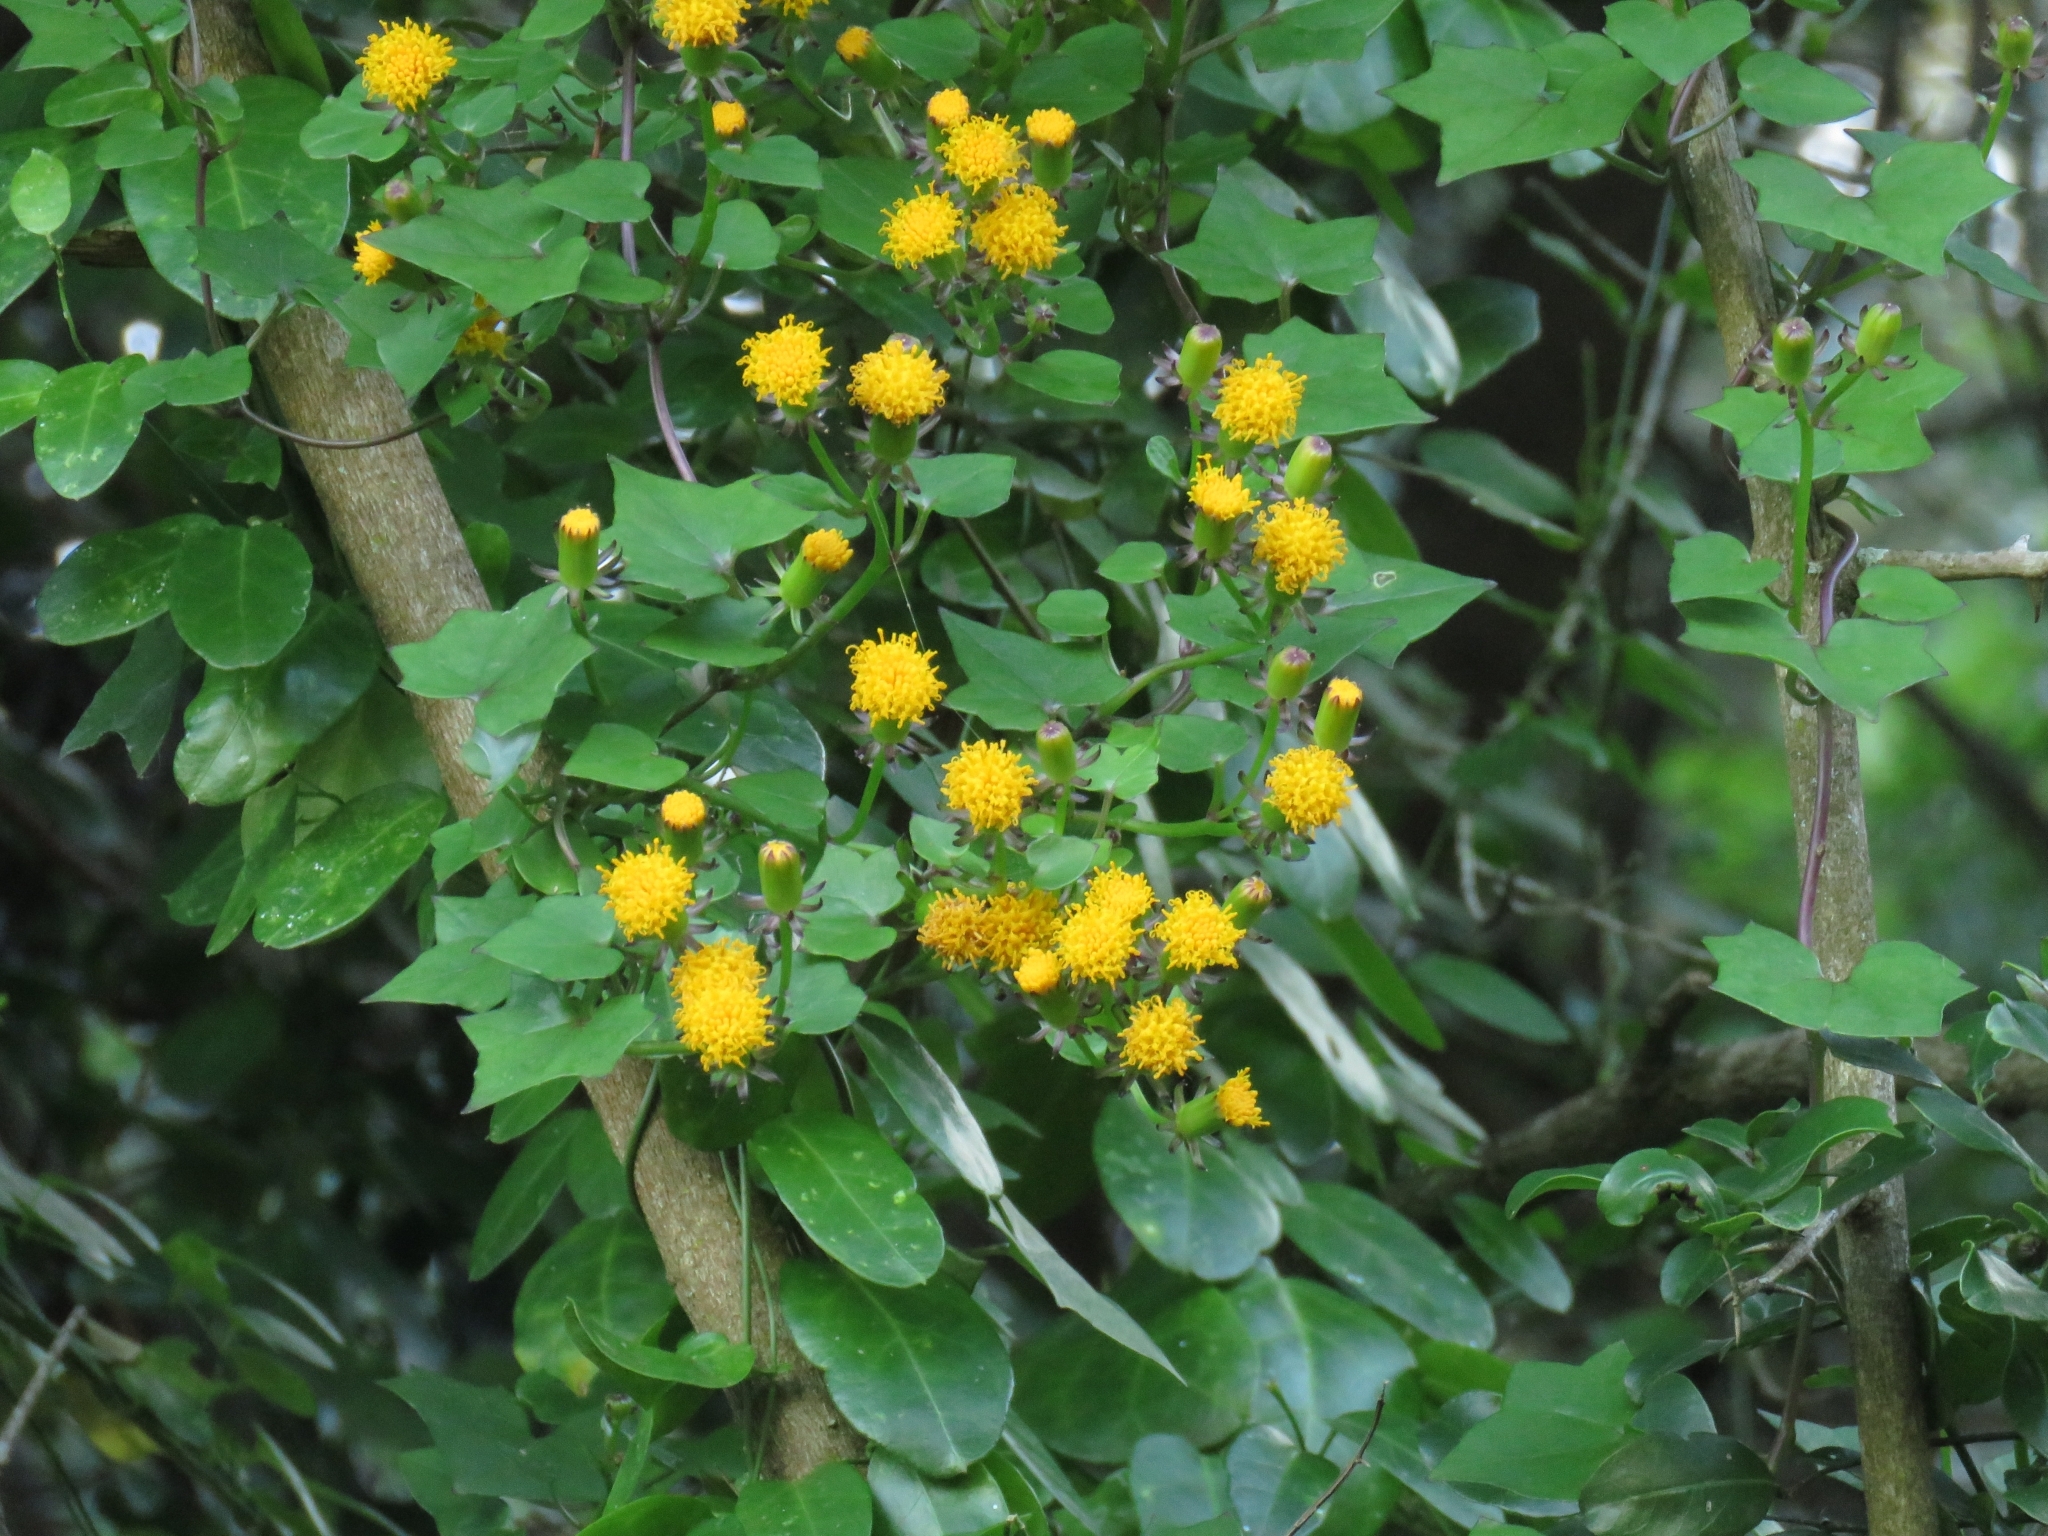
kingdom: Plantae
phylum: Tracheophyta
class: Magnoliopsida
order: Asterales
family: Asteraceae
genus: Delairea
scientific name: Delairea odorata
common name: Cape-ivy
